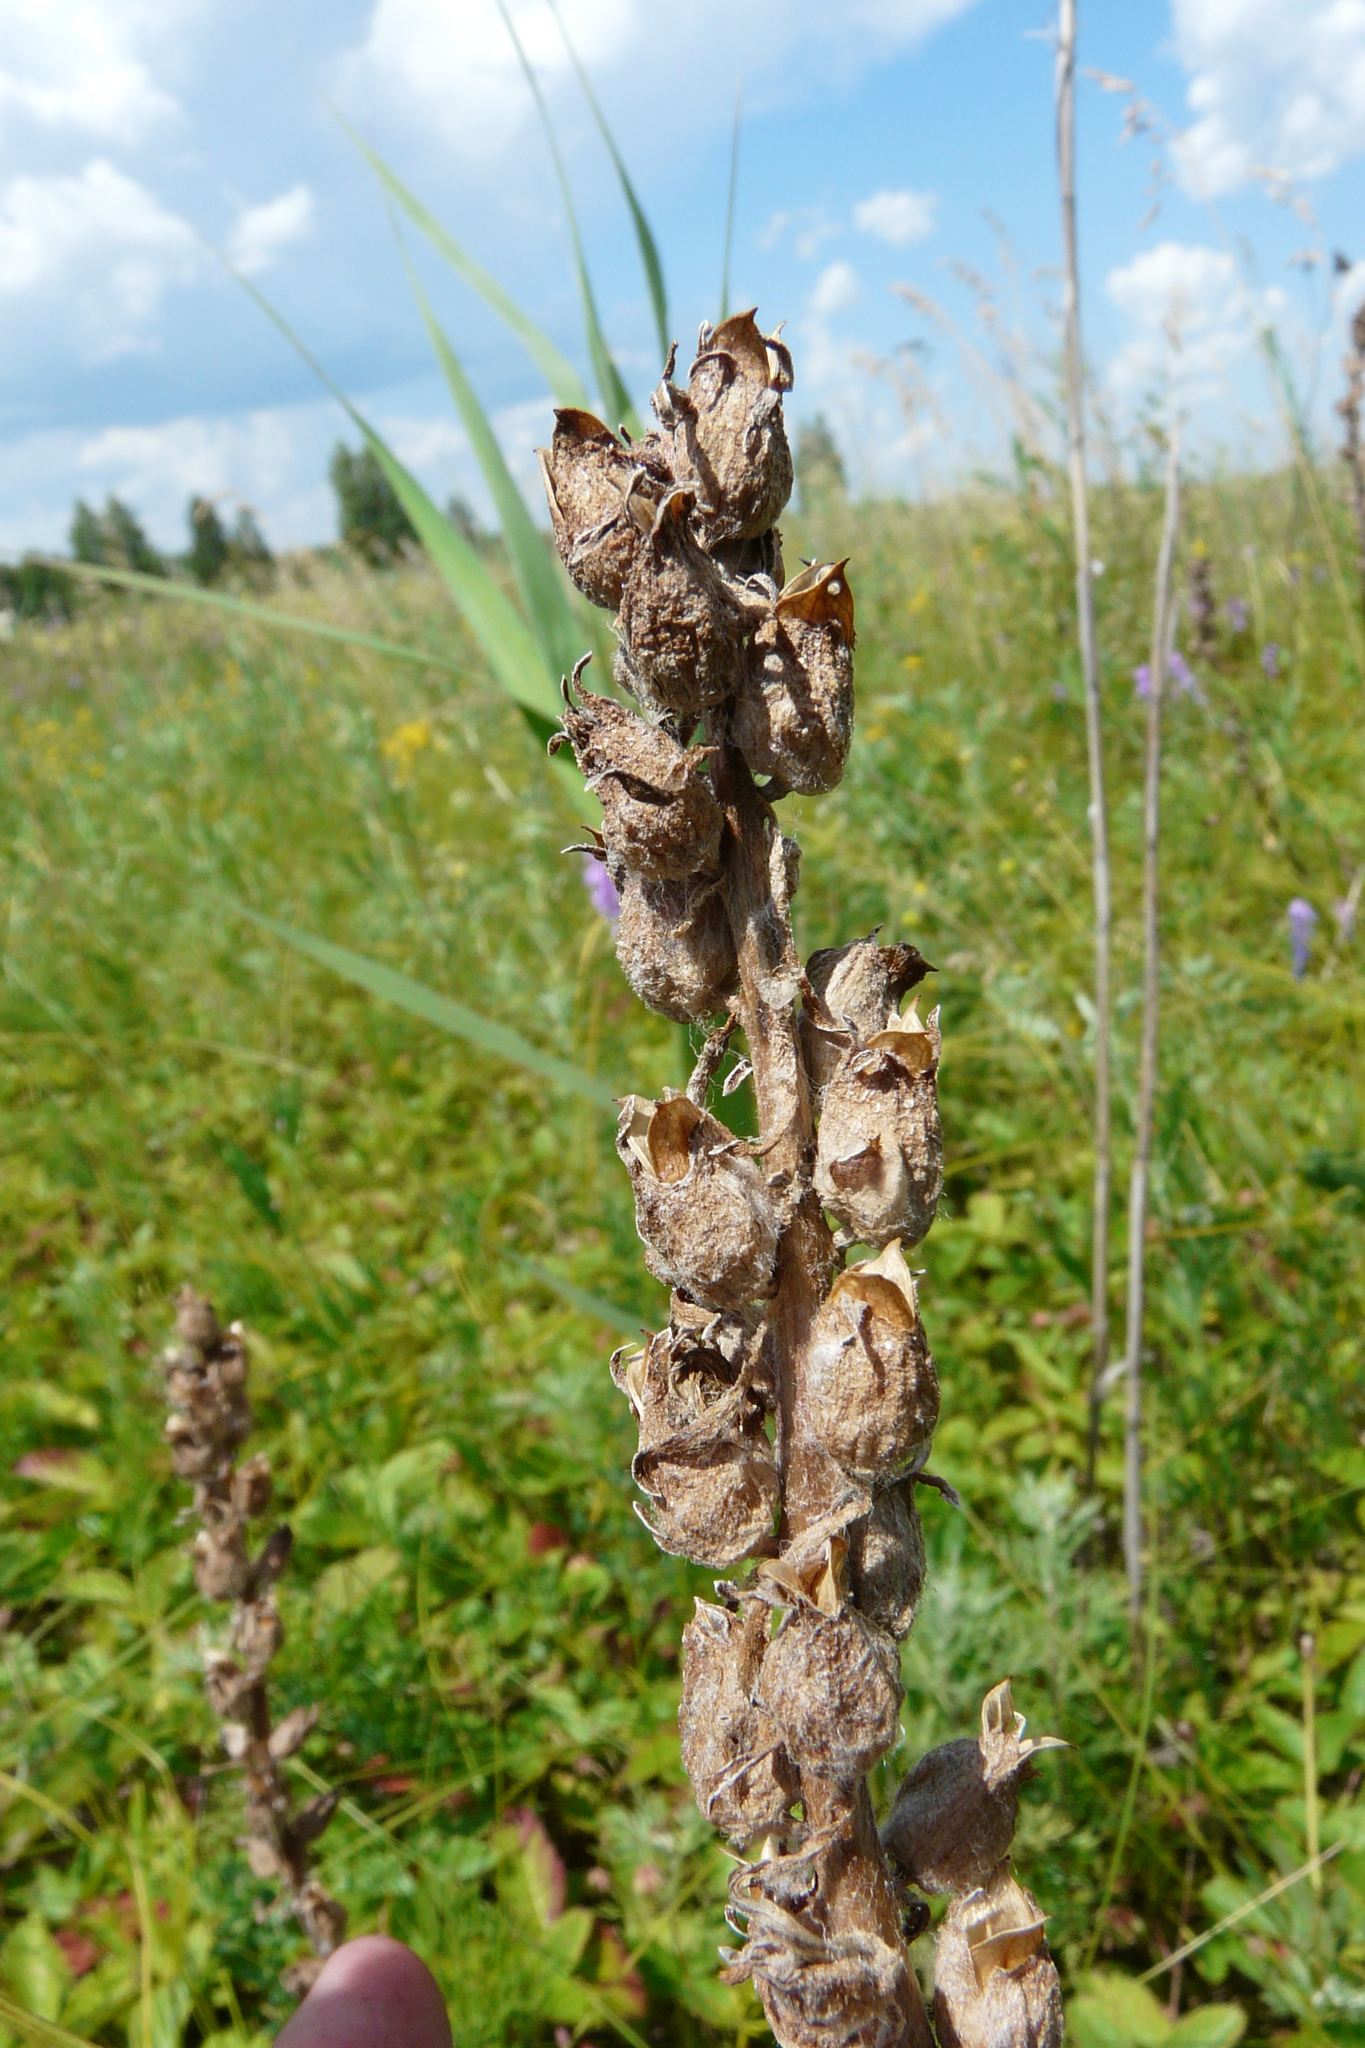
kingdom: Plantae
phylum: Tracheophyta
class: Magnoliopsida
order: Lamiales
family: Orobanchaceae
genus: Pedicularis
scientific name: Pedicularis dasystachys
